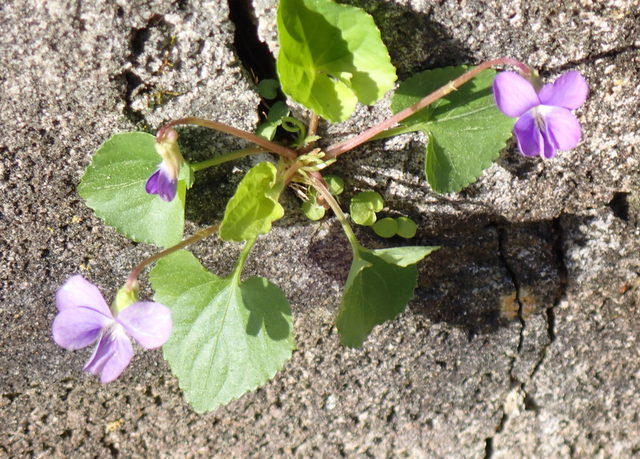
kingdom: Plantae
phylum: Tracheophyta
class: Magnoliopsida
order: Malpighiales
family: Violaceae
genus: Viola
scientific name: Viola sororia
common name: Dooryard violet
